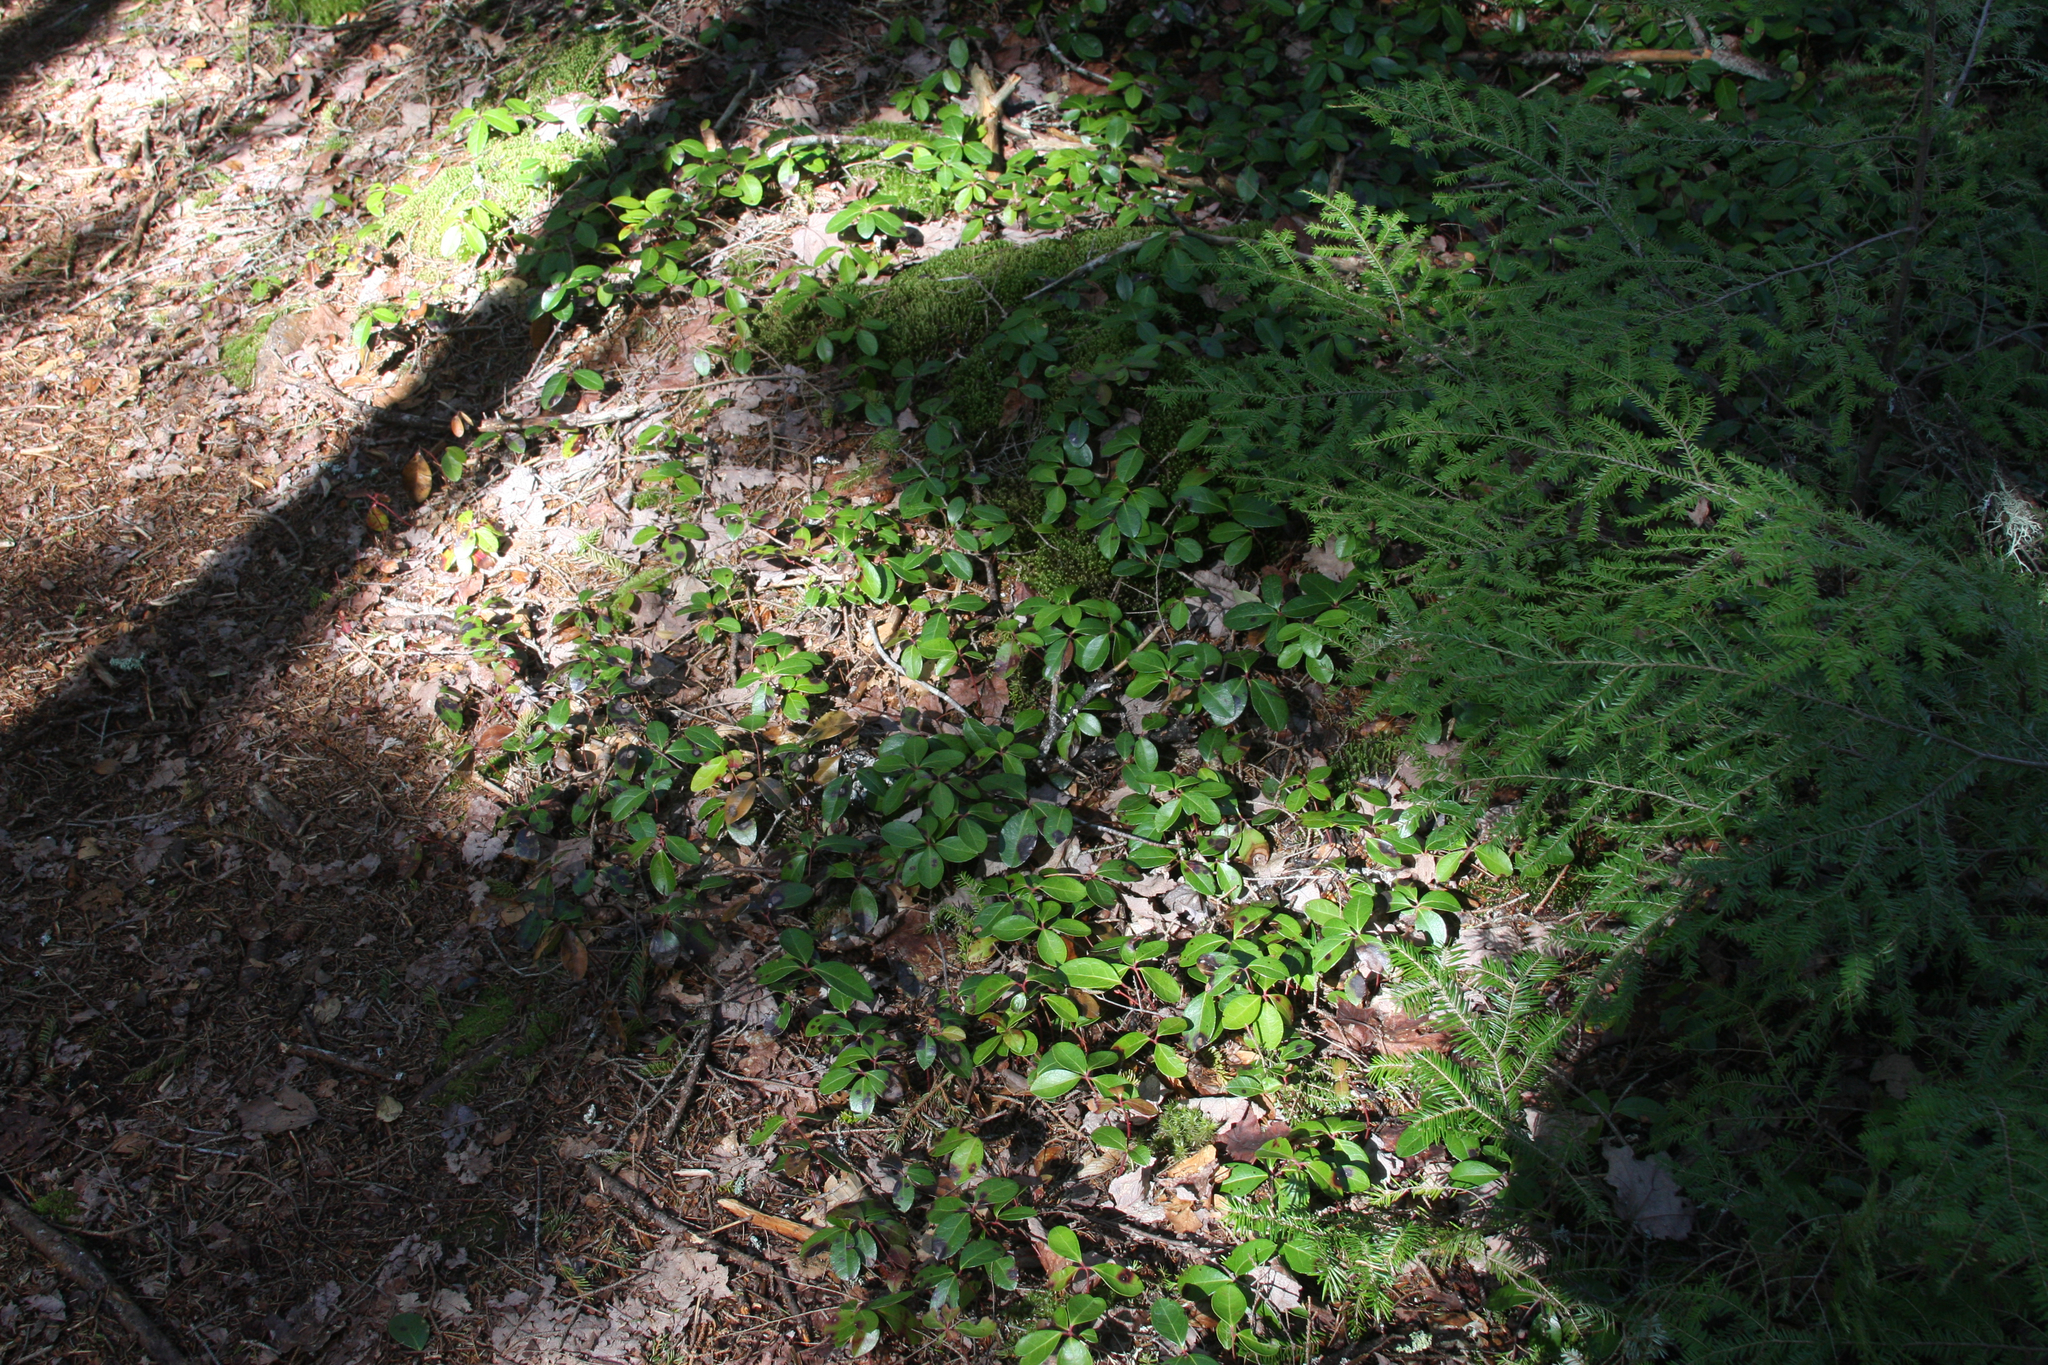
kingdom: Plantae
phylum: Tracheophyta
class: Magnoliopsida
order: Ericales
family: Ericaceae
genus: Gaultheria
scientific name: Gaultheria procumbens
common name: Checkerberry
